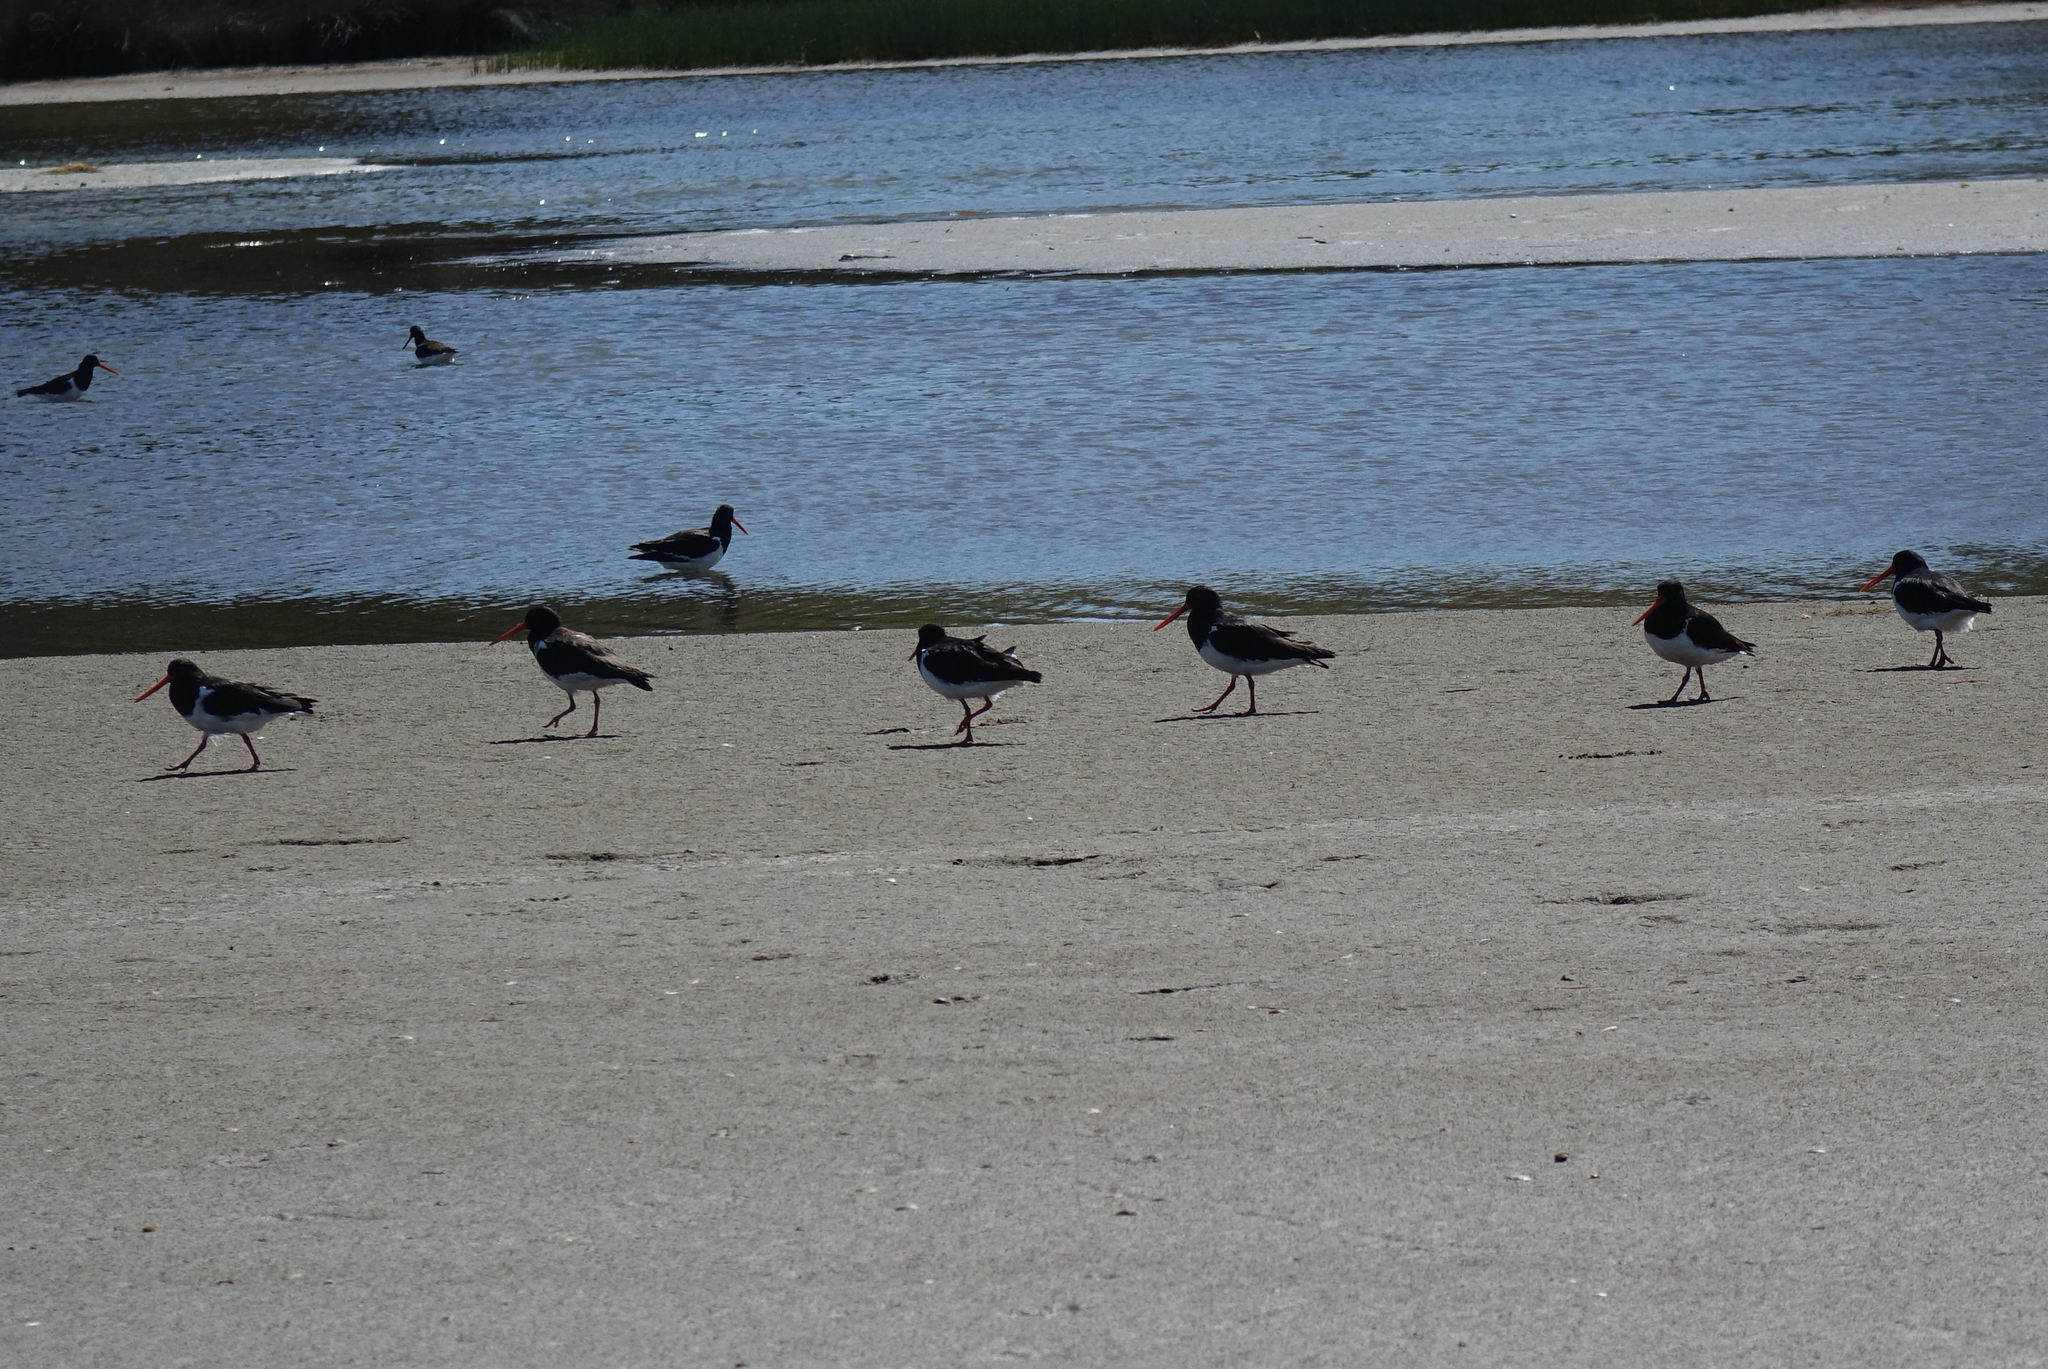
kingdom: Animalia
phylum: Chordata
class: Aves
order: Charadriiformes
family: Haematopodidae
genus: Haematopus
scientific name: Haematopus finschi
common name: South island oystercatcher
